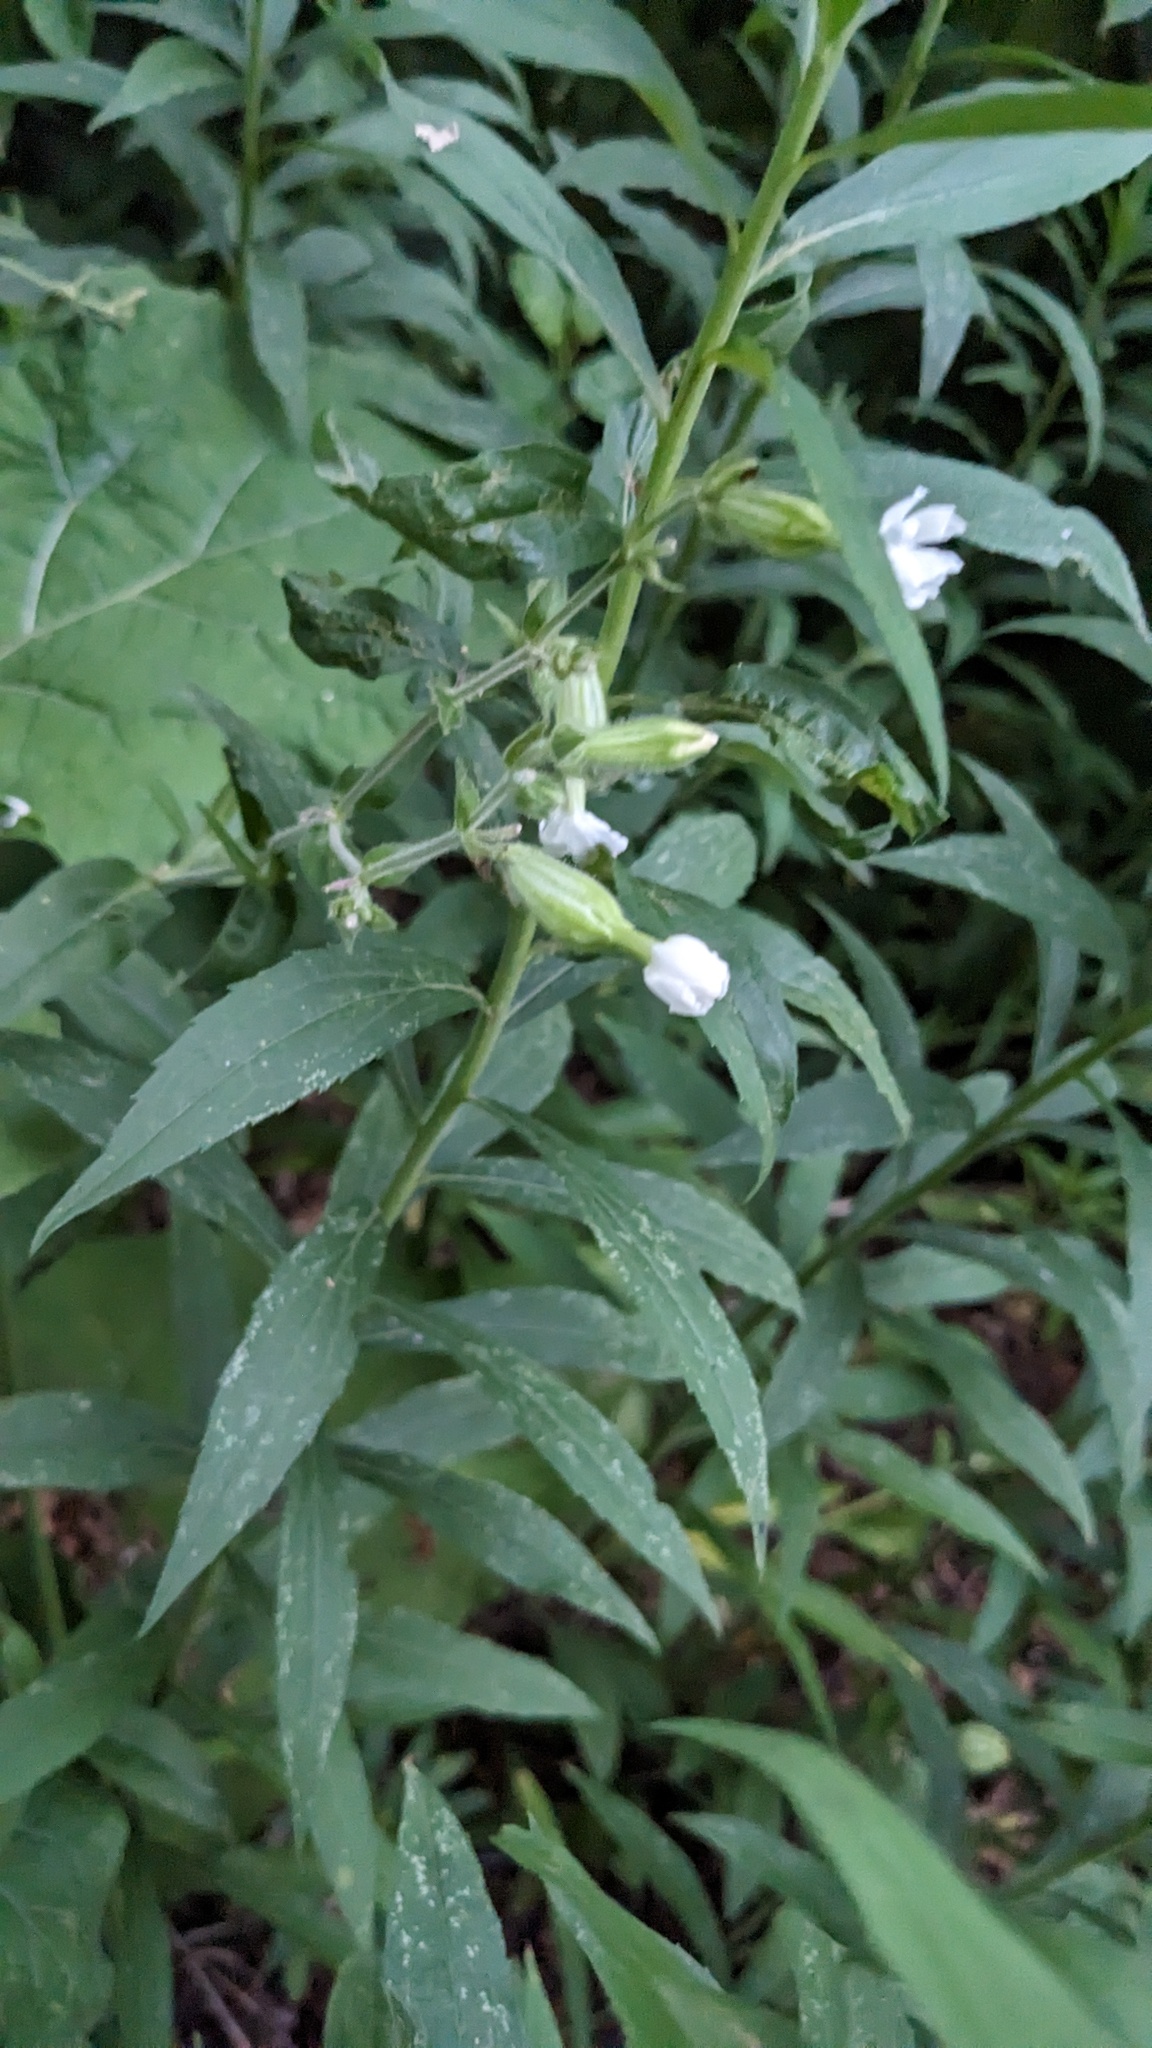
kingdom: Plantae
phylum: Tracheophyta
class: Magnoliopsida
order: Caryophyllales
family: Caryophyllaceae
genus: Silene
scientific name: Silene latifolia
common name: White campion
